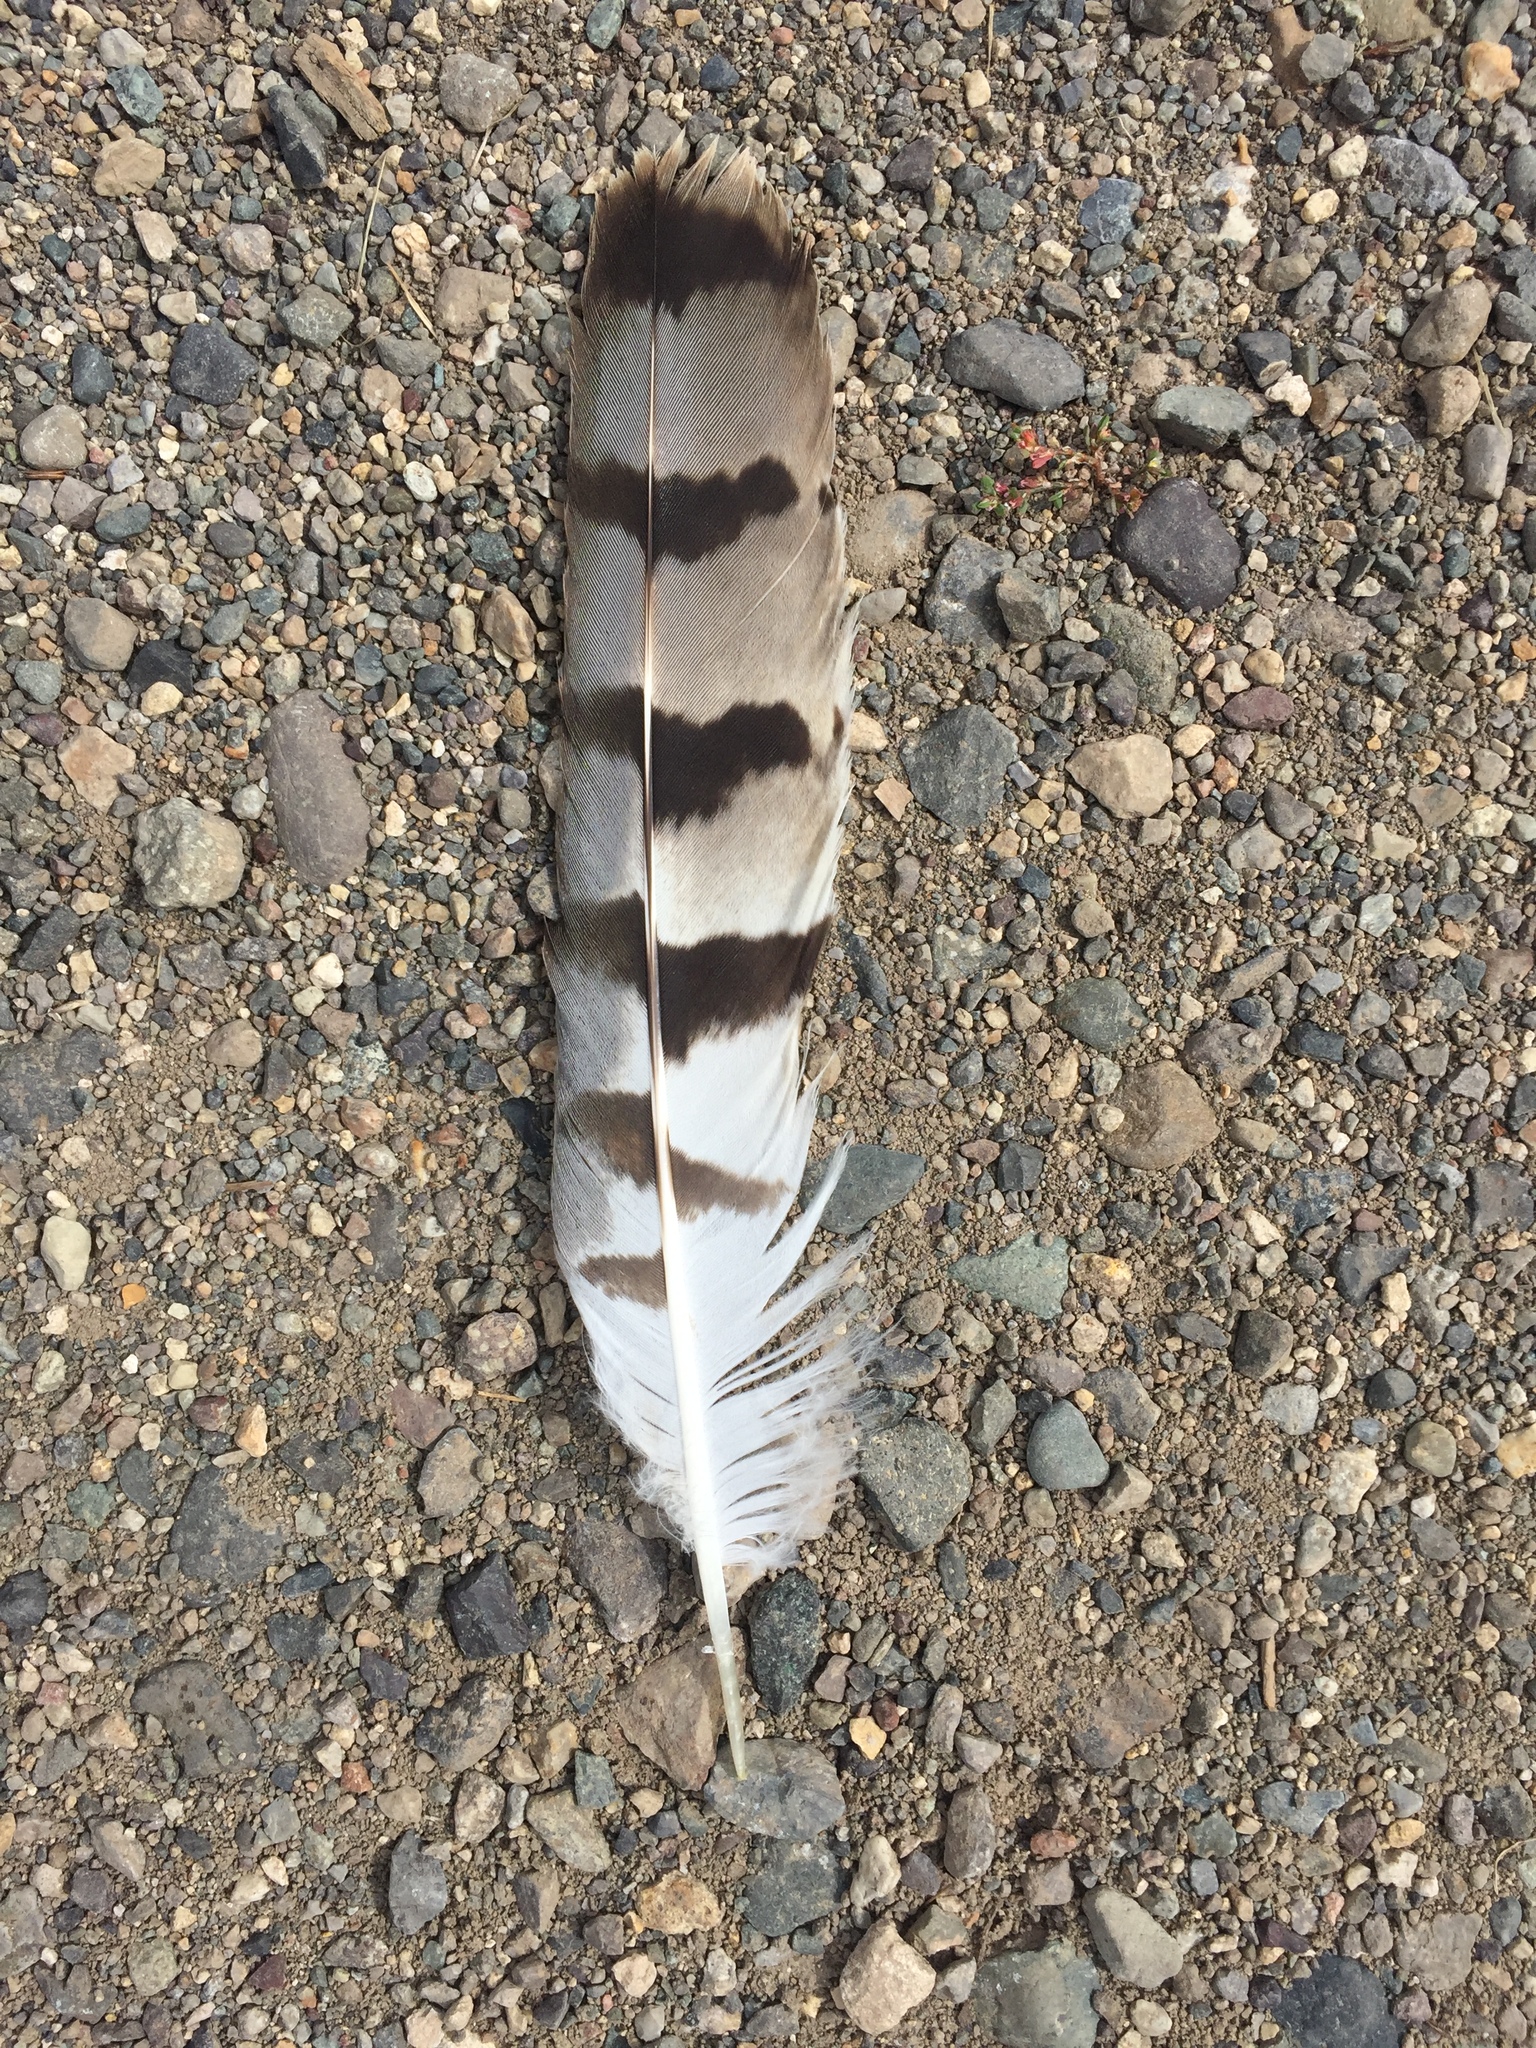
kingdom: Animalia
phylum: Chordata
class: Aves
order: Accipitriformes
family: Accipitridae
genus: Circus
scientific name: Circus cyaneus
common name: Hen harrier
